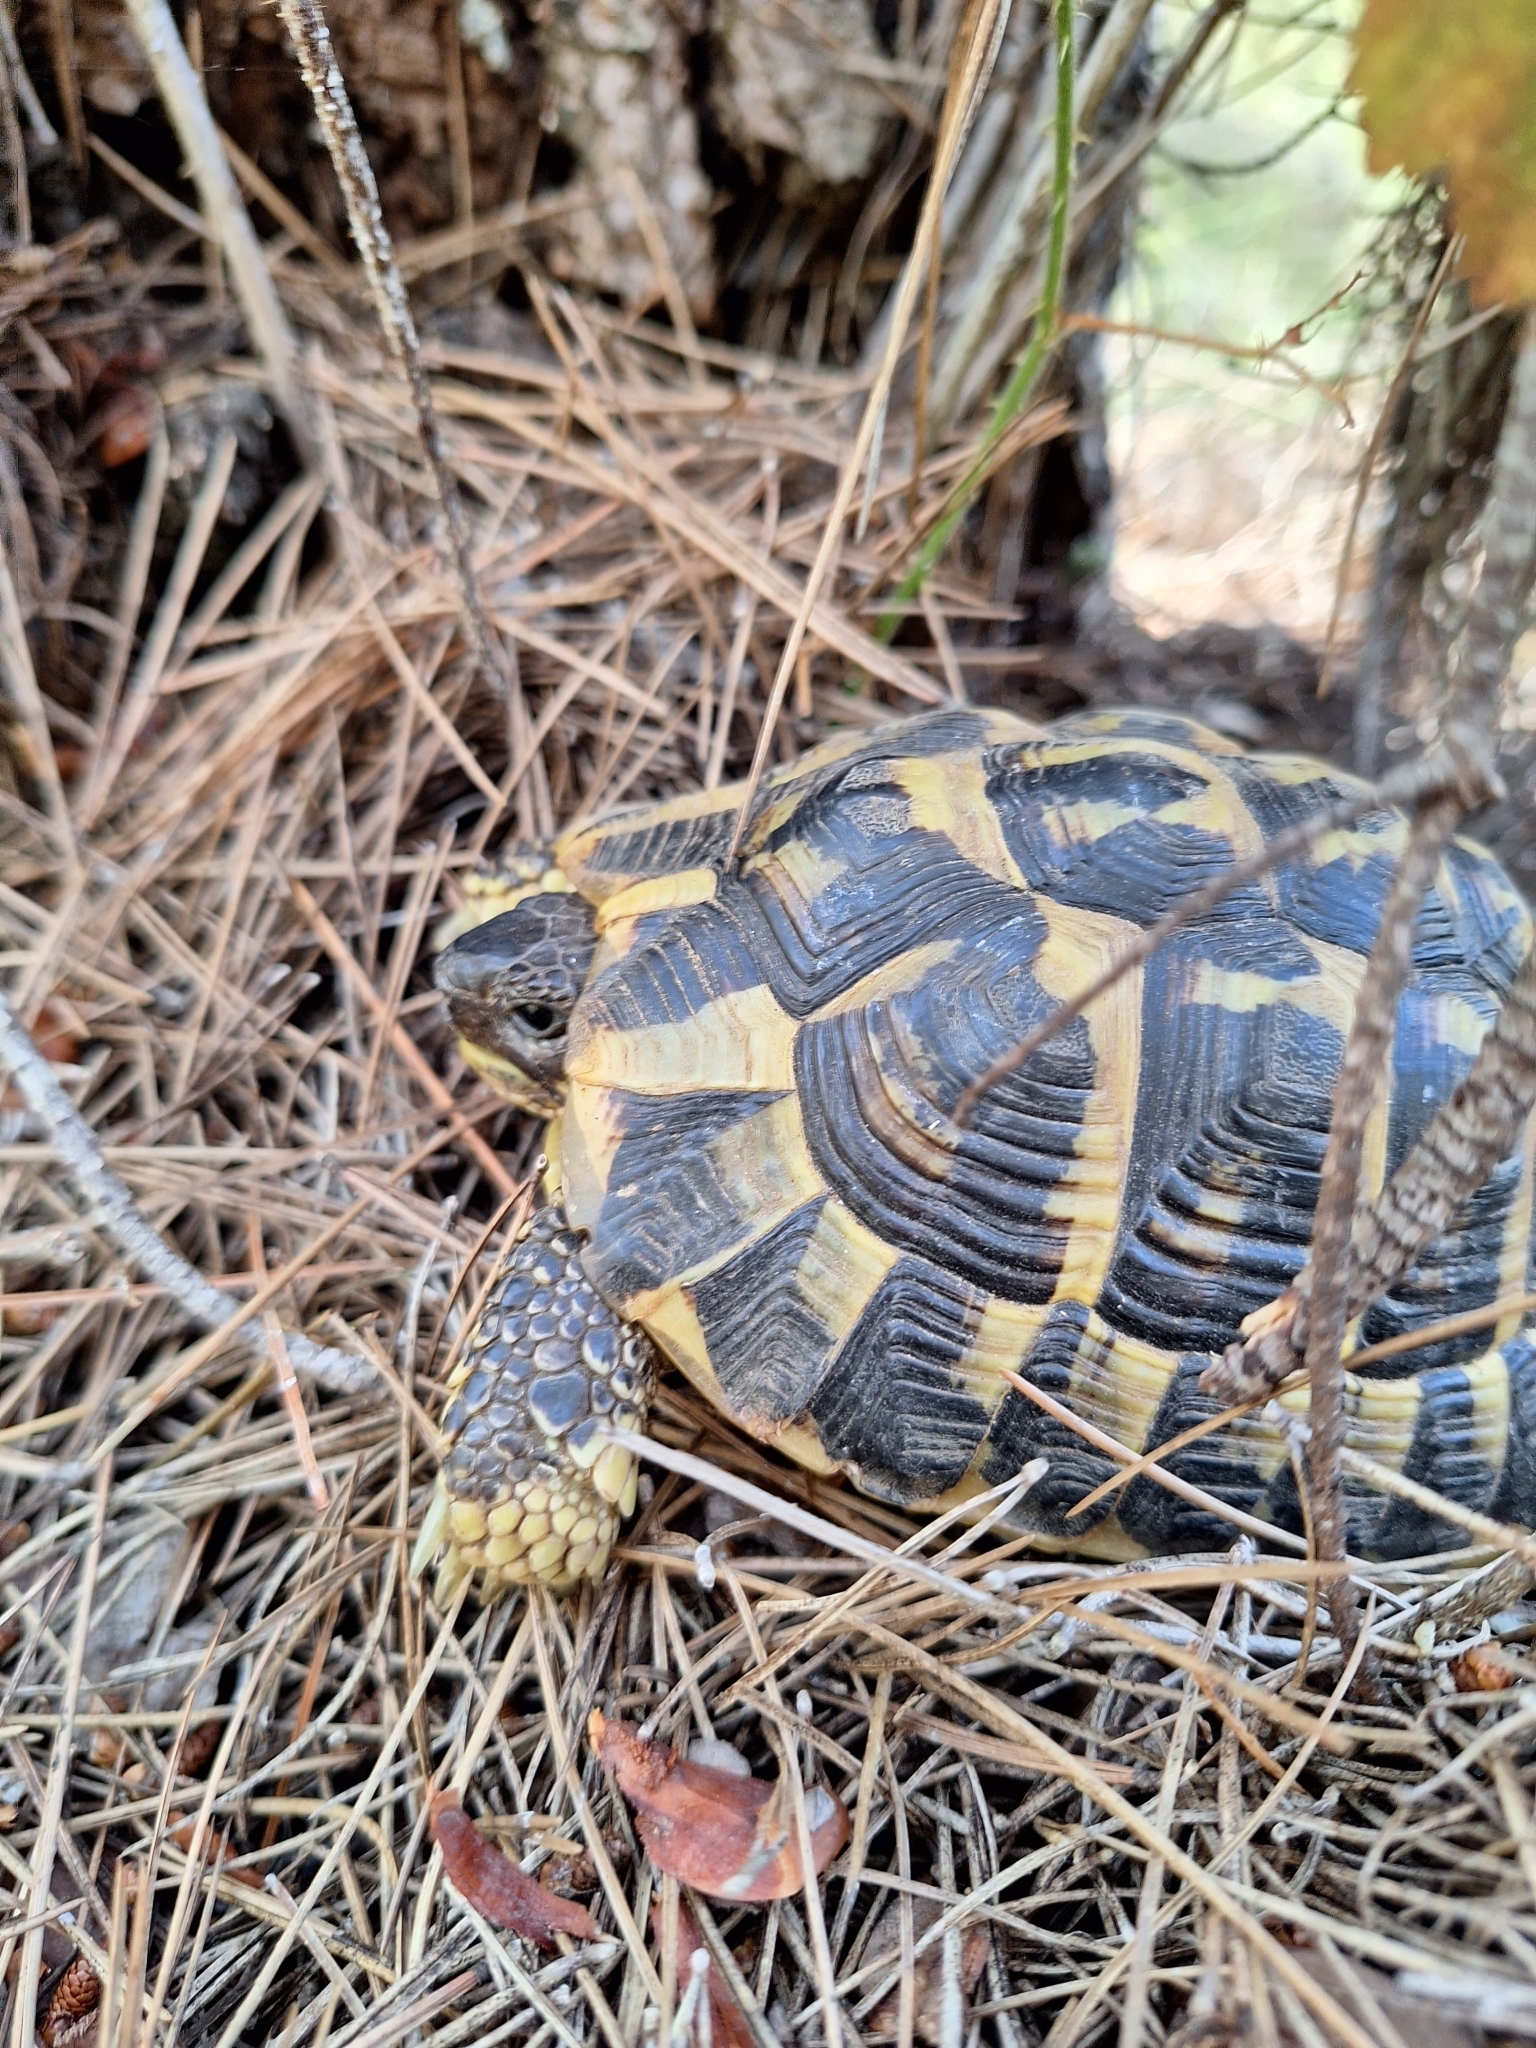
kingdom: Animalia
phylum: Chordata
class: Testudines
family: Testudinidae
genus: Testudo
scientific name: Testudo hermanni
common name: Hermann's tortoise
